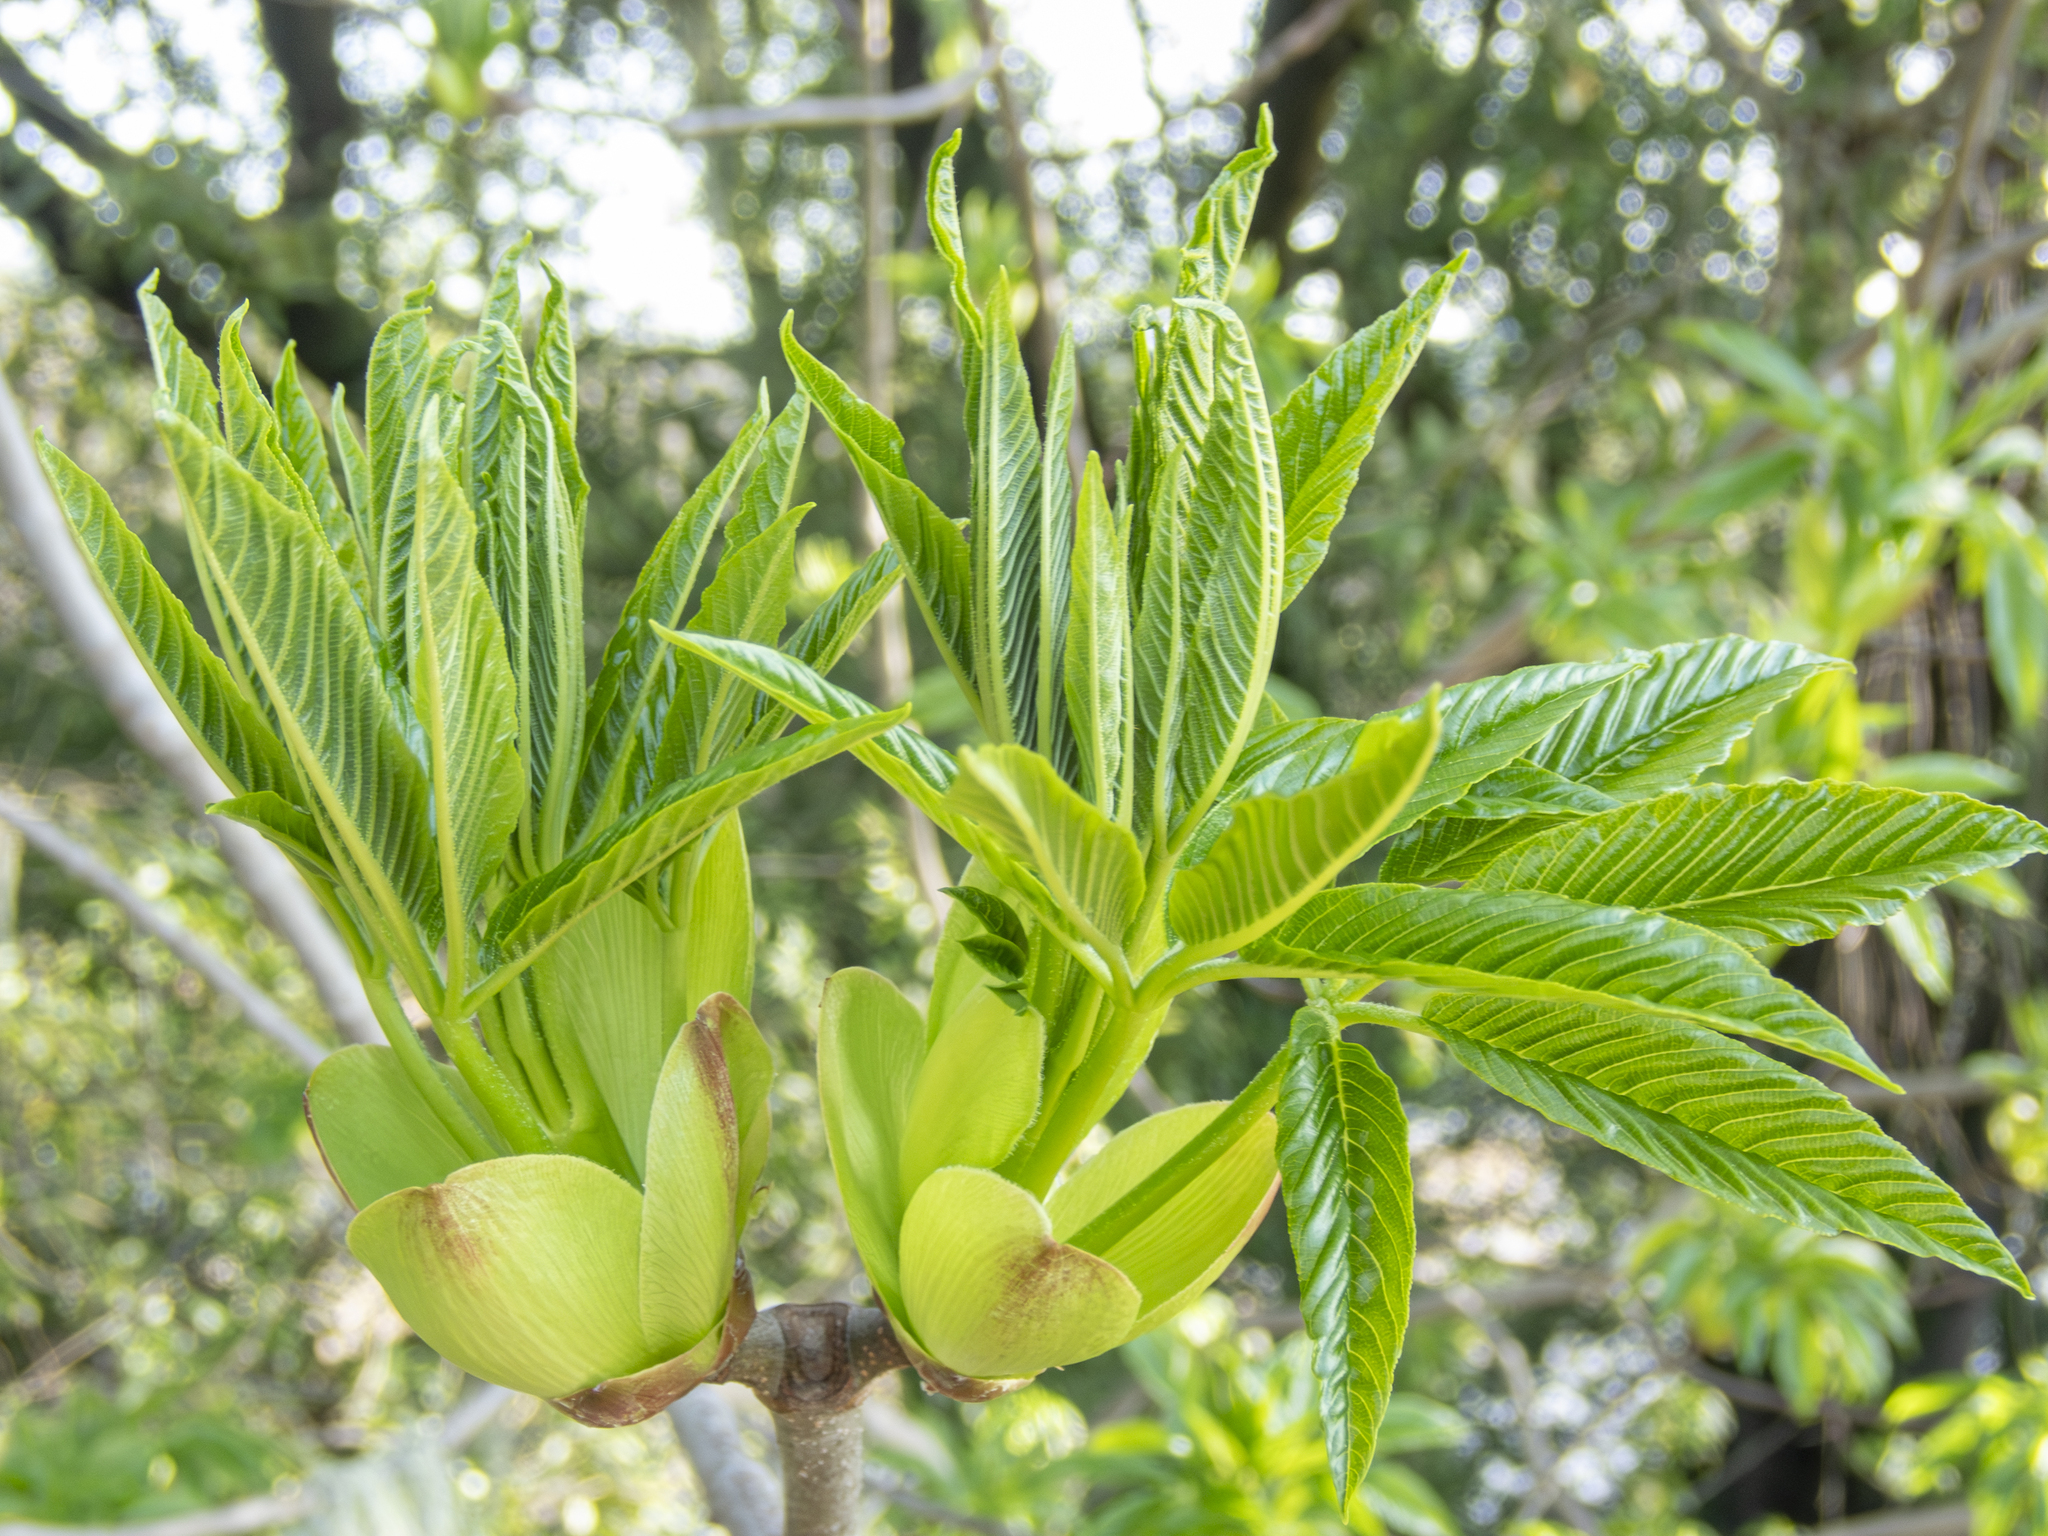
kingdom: Plantae
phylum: Tracheophyta
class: Magnoliopsida
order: Sapindales
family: Sapindaceae
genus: Aesculus
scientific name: Aesculus californica
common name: California buckeye
